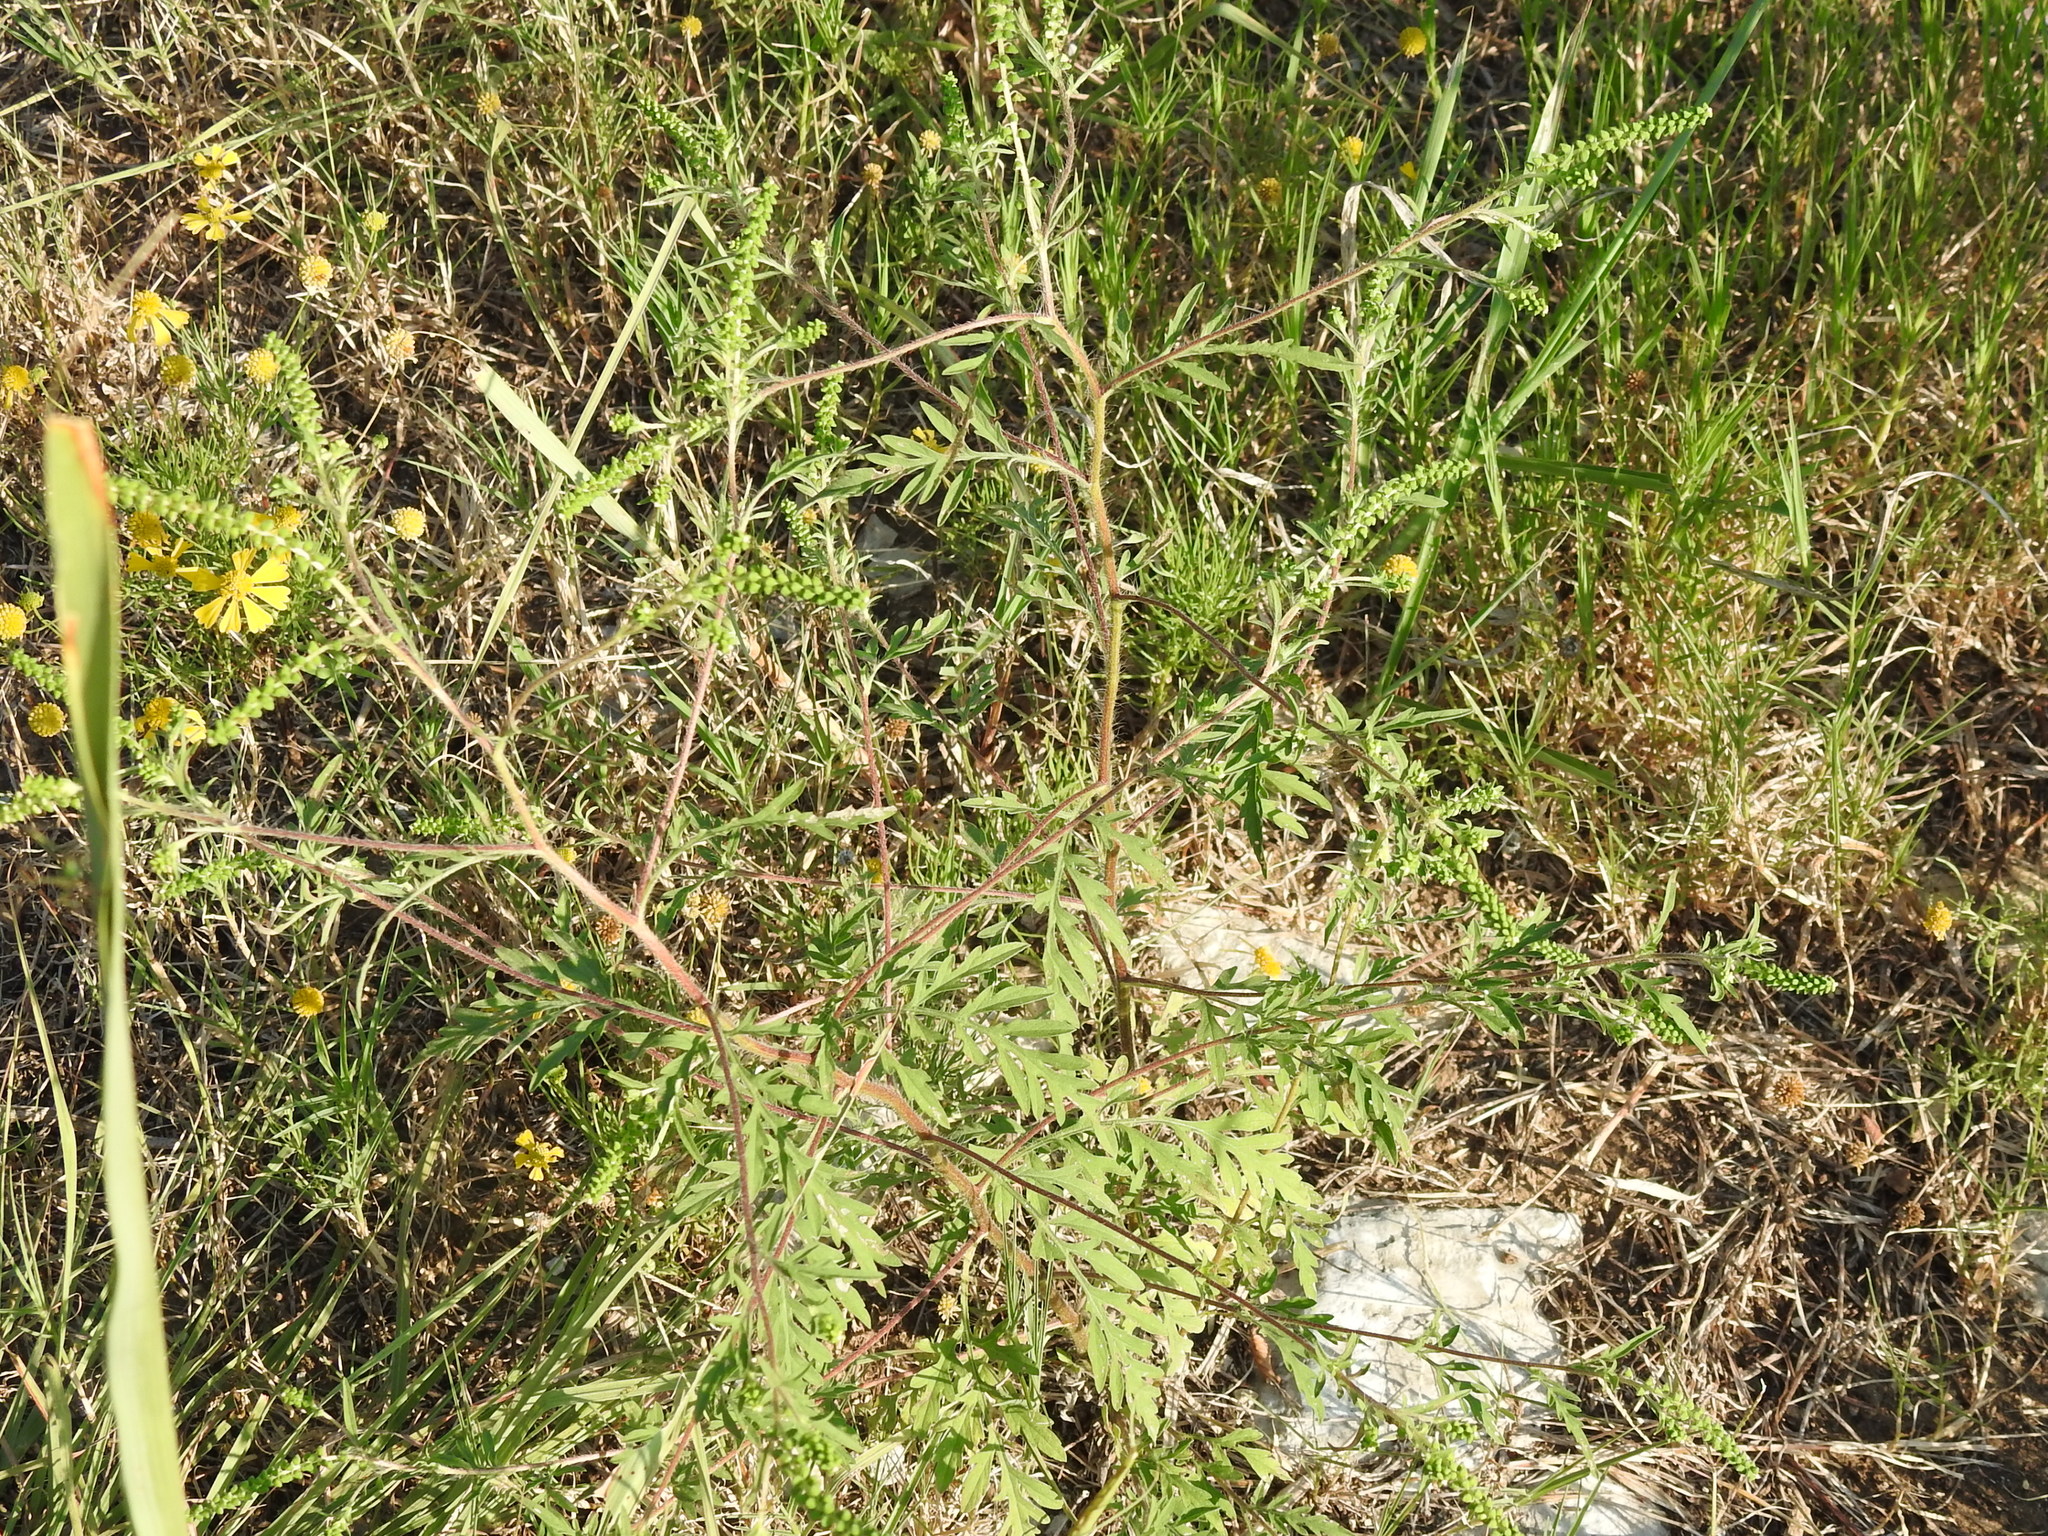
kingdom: Plantae
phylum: Tracheophyta
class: Magnoliopsida
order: Asterales
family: Asteraceae
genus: Ambrosia
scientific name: Ambrosia artemisiifolia
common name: Annual ragweed
